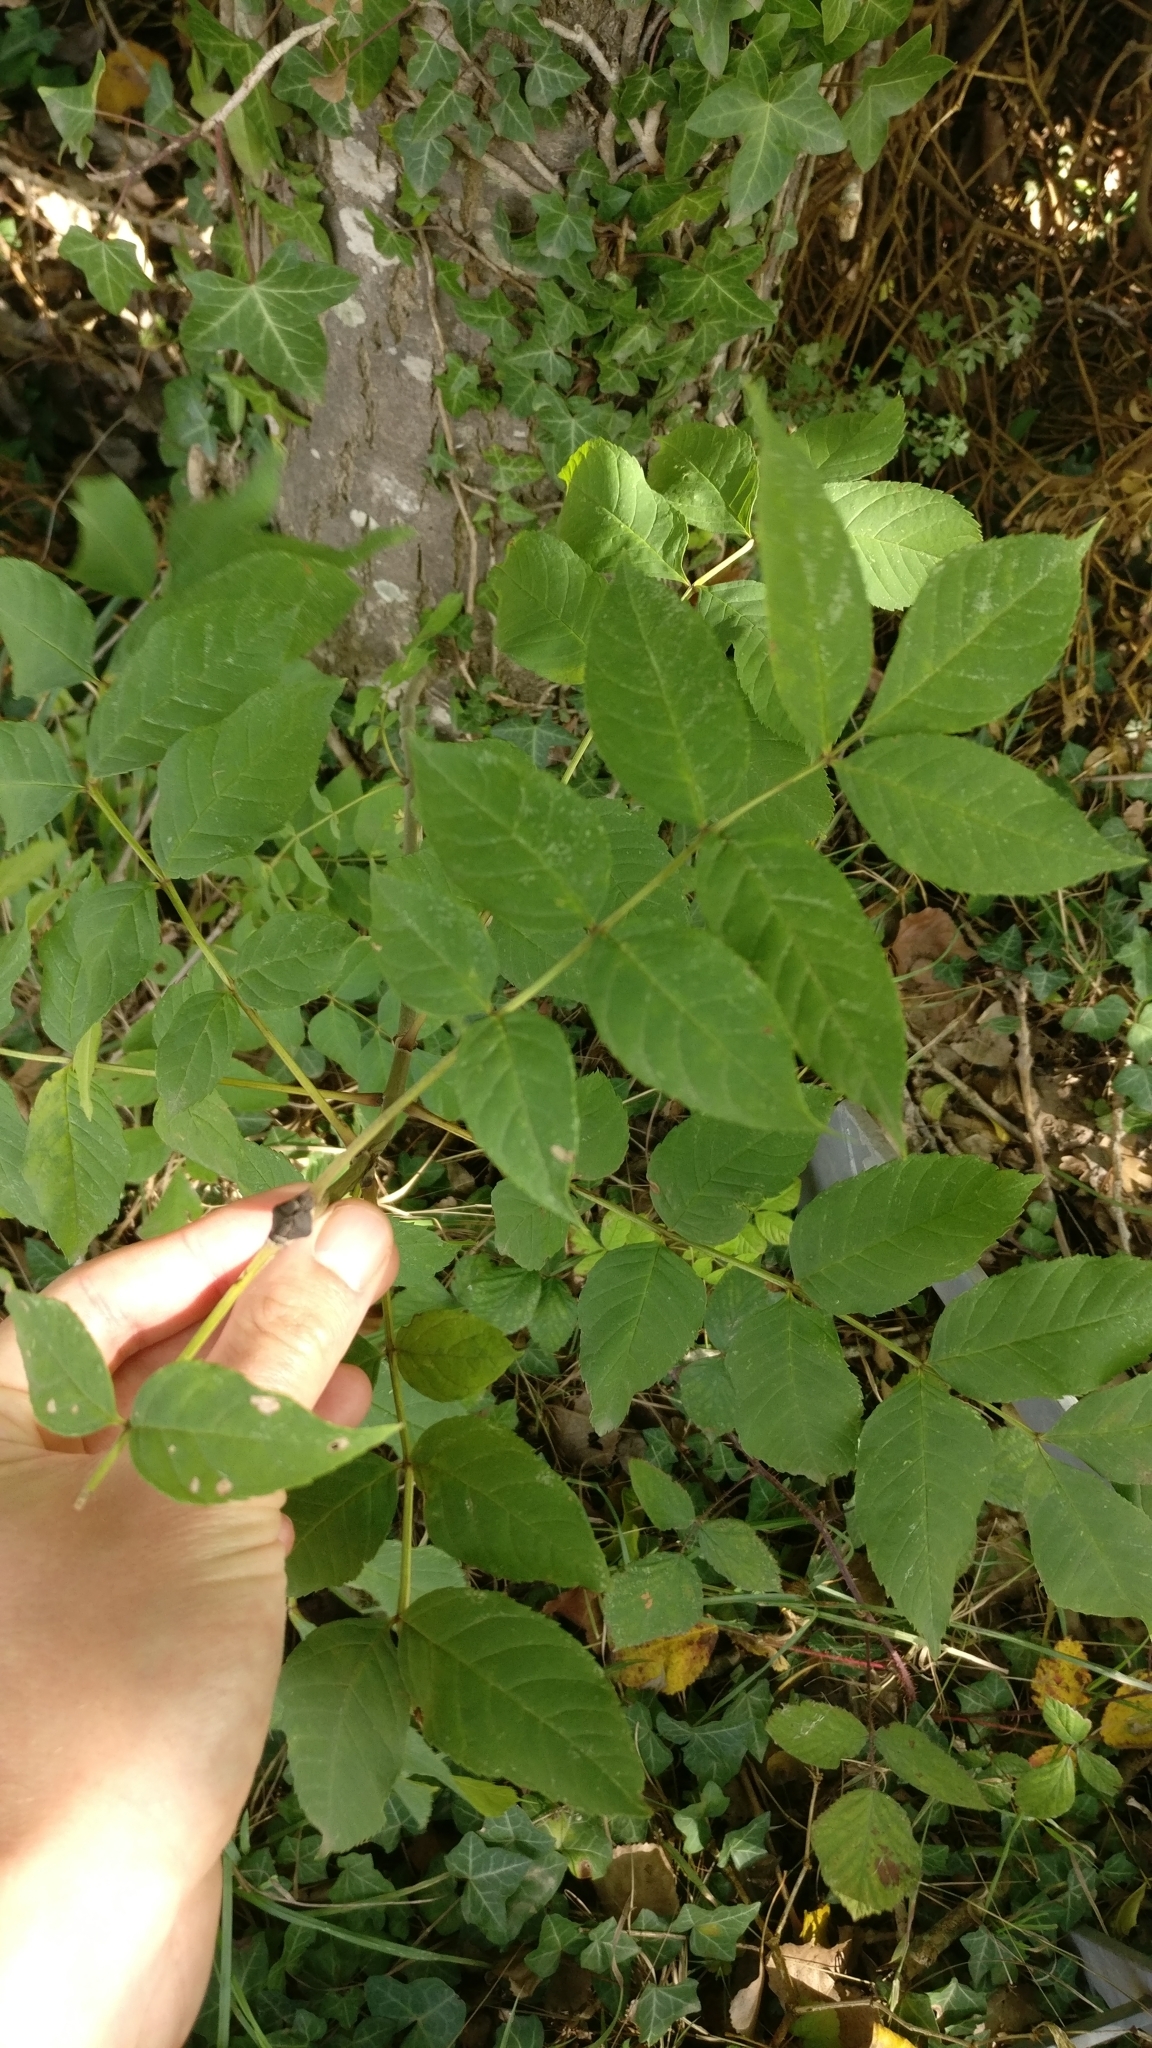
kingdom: Plantae
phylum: Tracheophyta
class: Magnoliopsida
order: Lamiales
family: Oleaceae
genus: Fraxinus
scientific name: Fraxinus excelsior
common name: European ash
